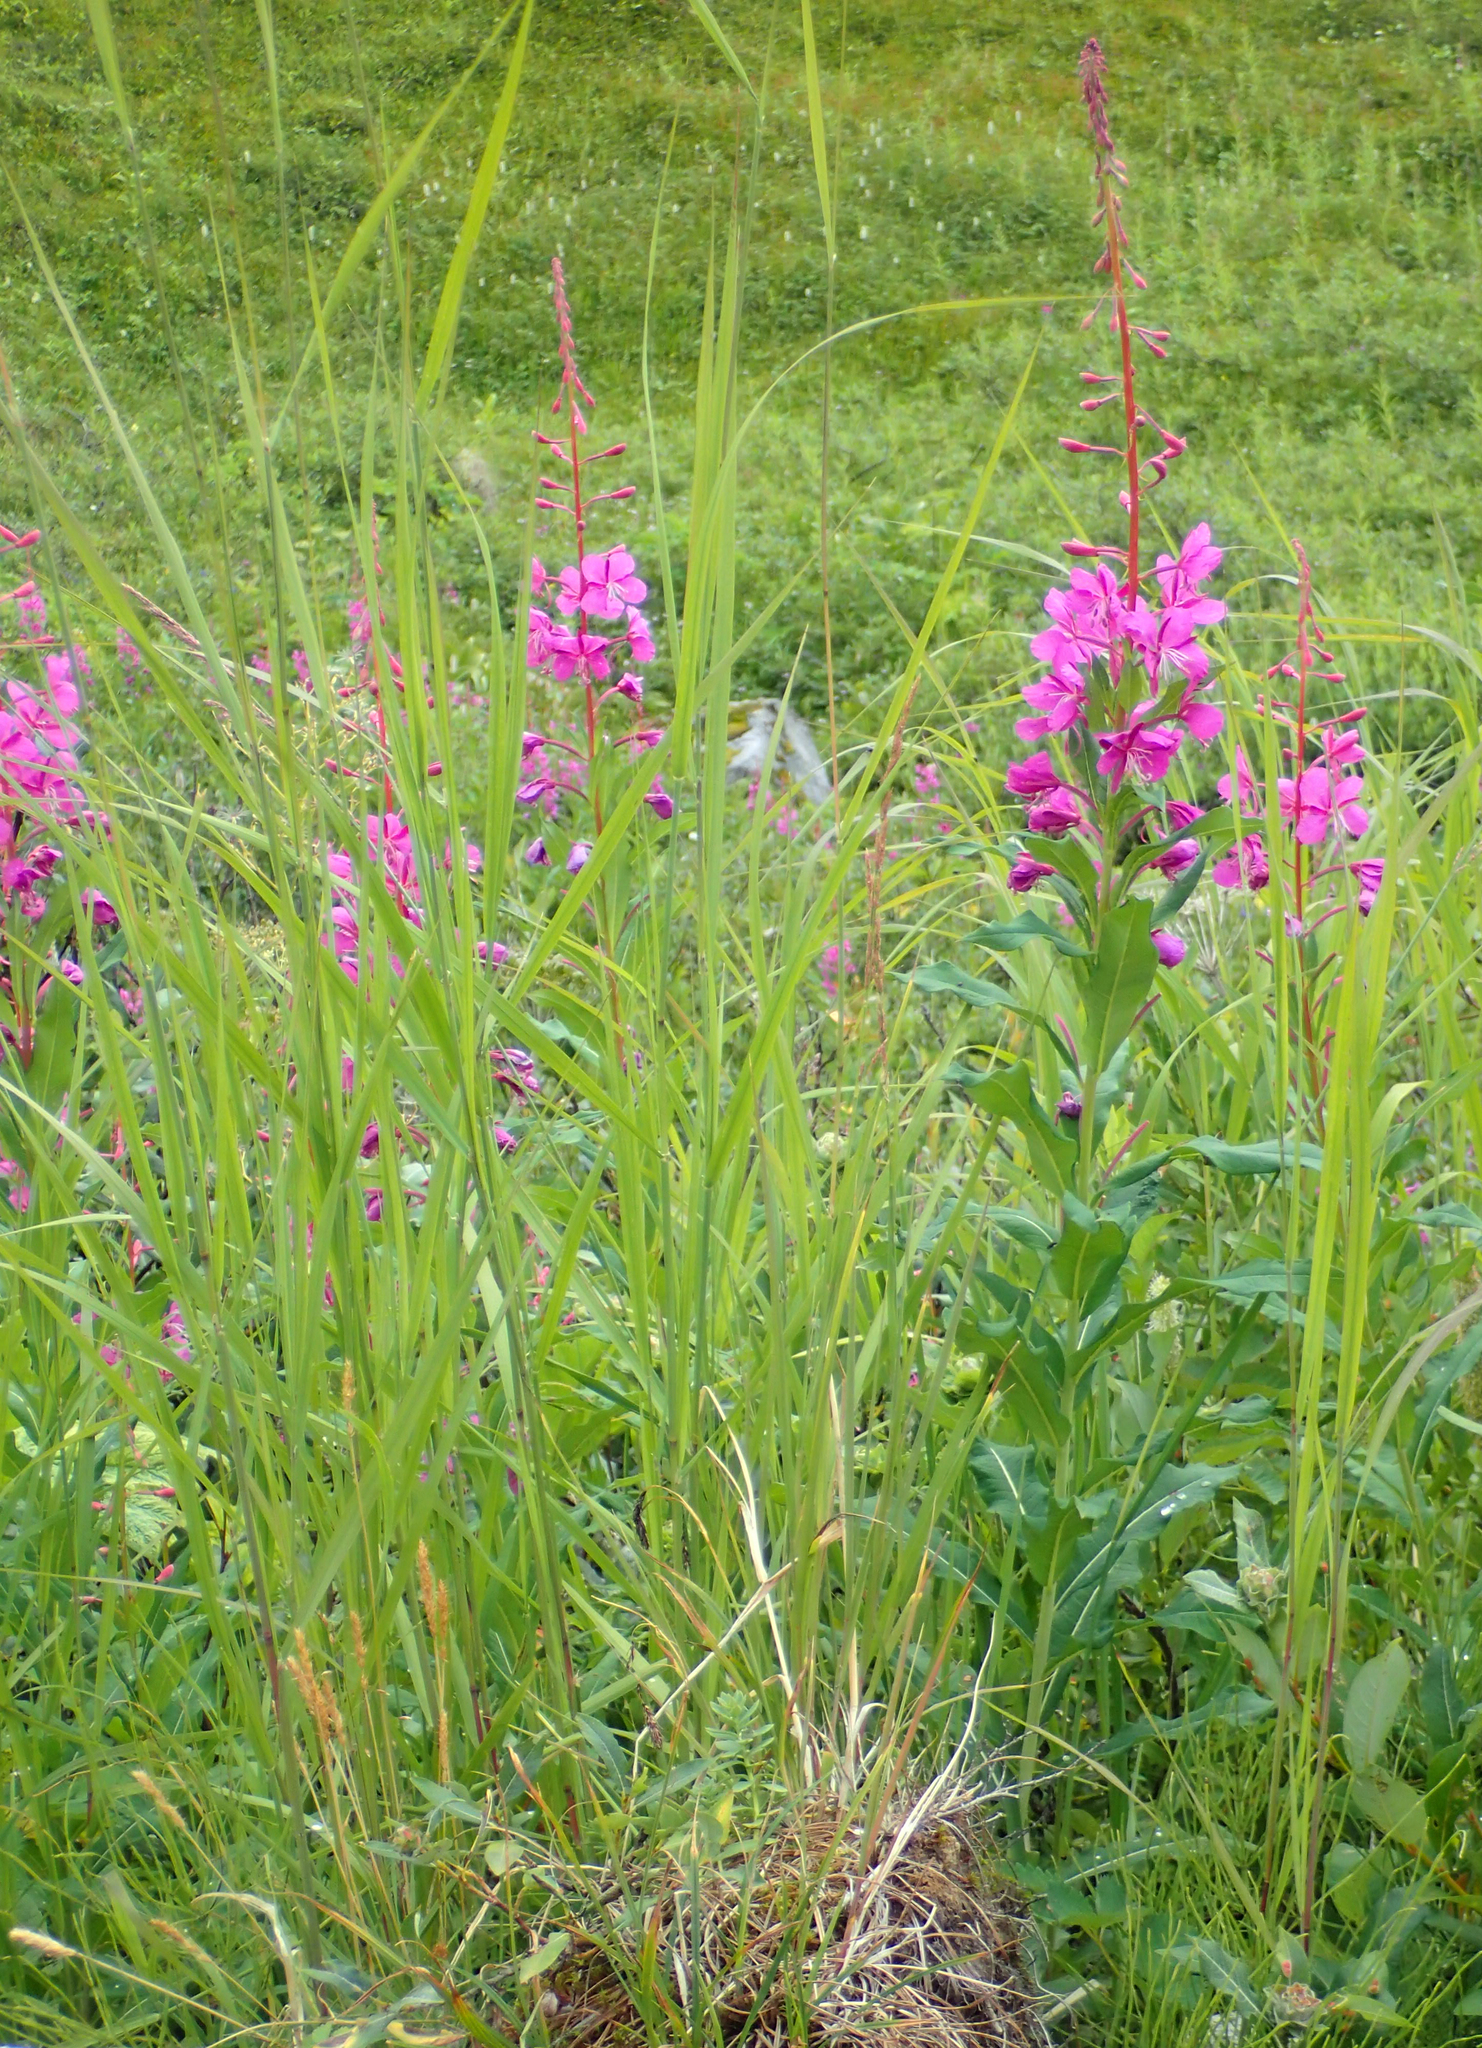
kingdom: Plantae
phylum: Tracheophyta
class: Magnoliopsida
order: Myrtales
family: Onagraceae
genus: Chamaenerion
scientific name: Chamaenerion angustifolium
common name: Fireweed
